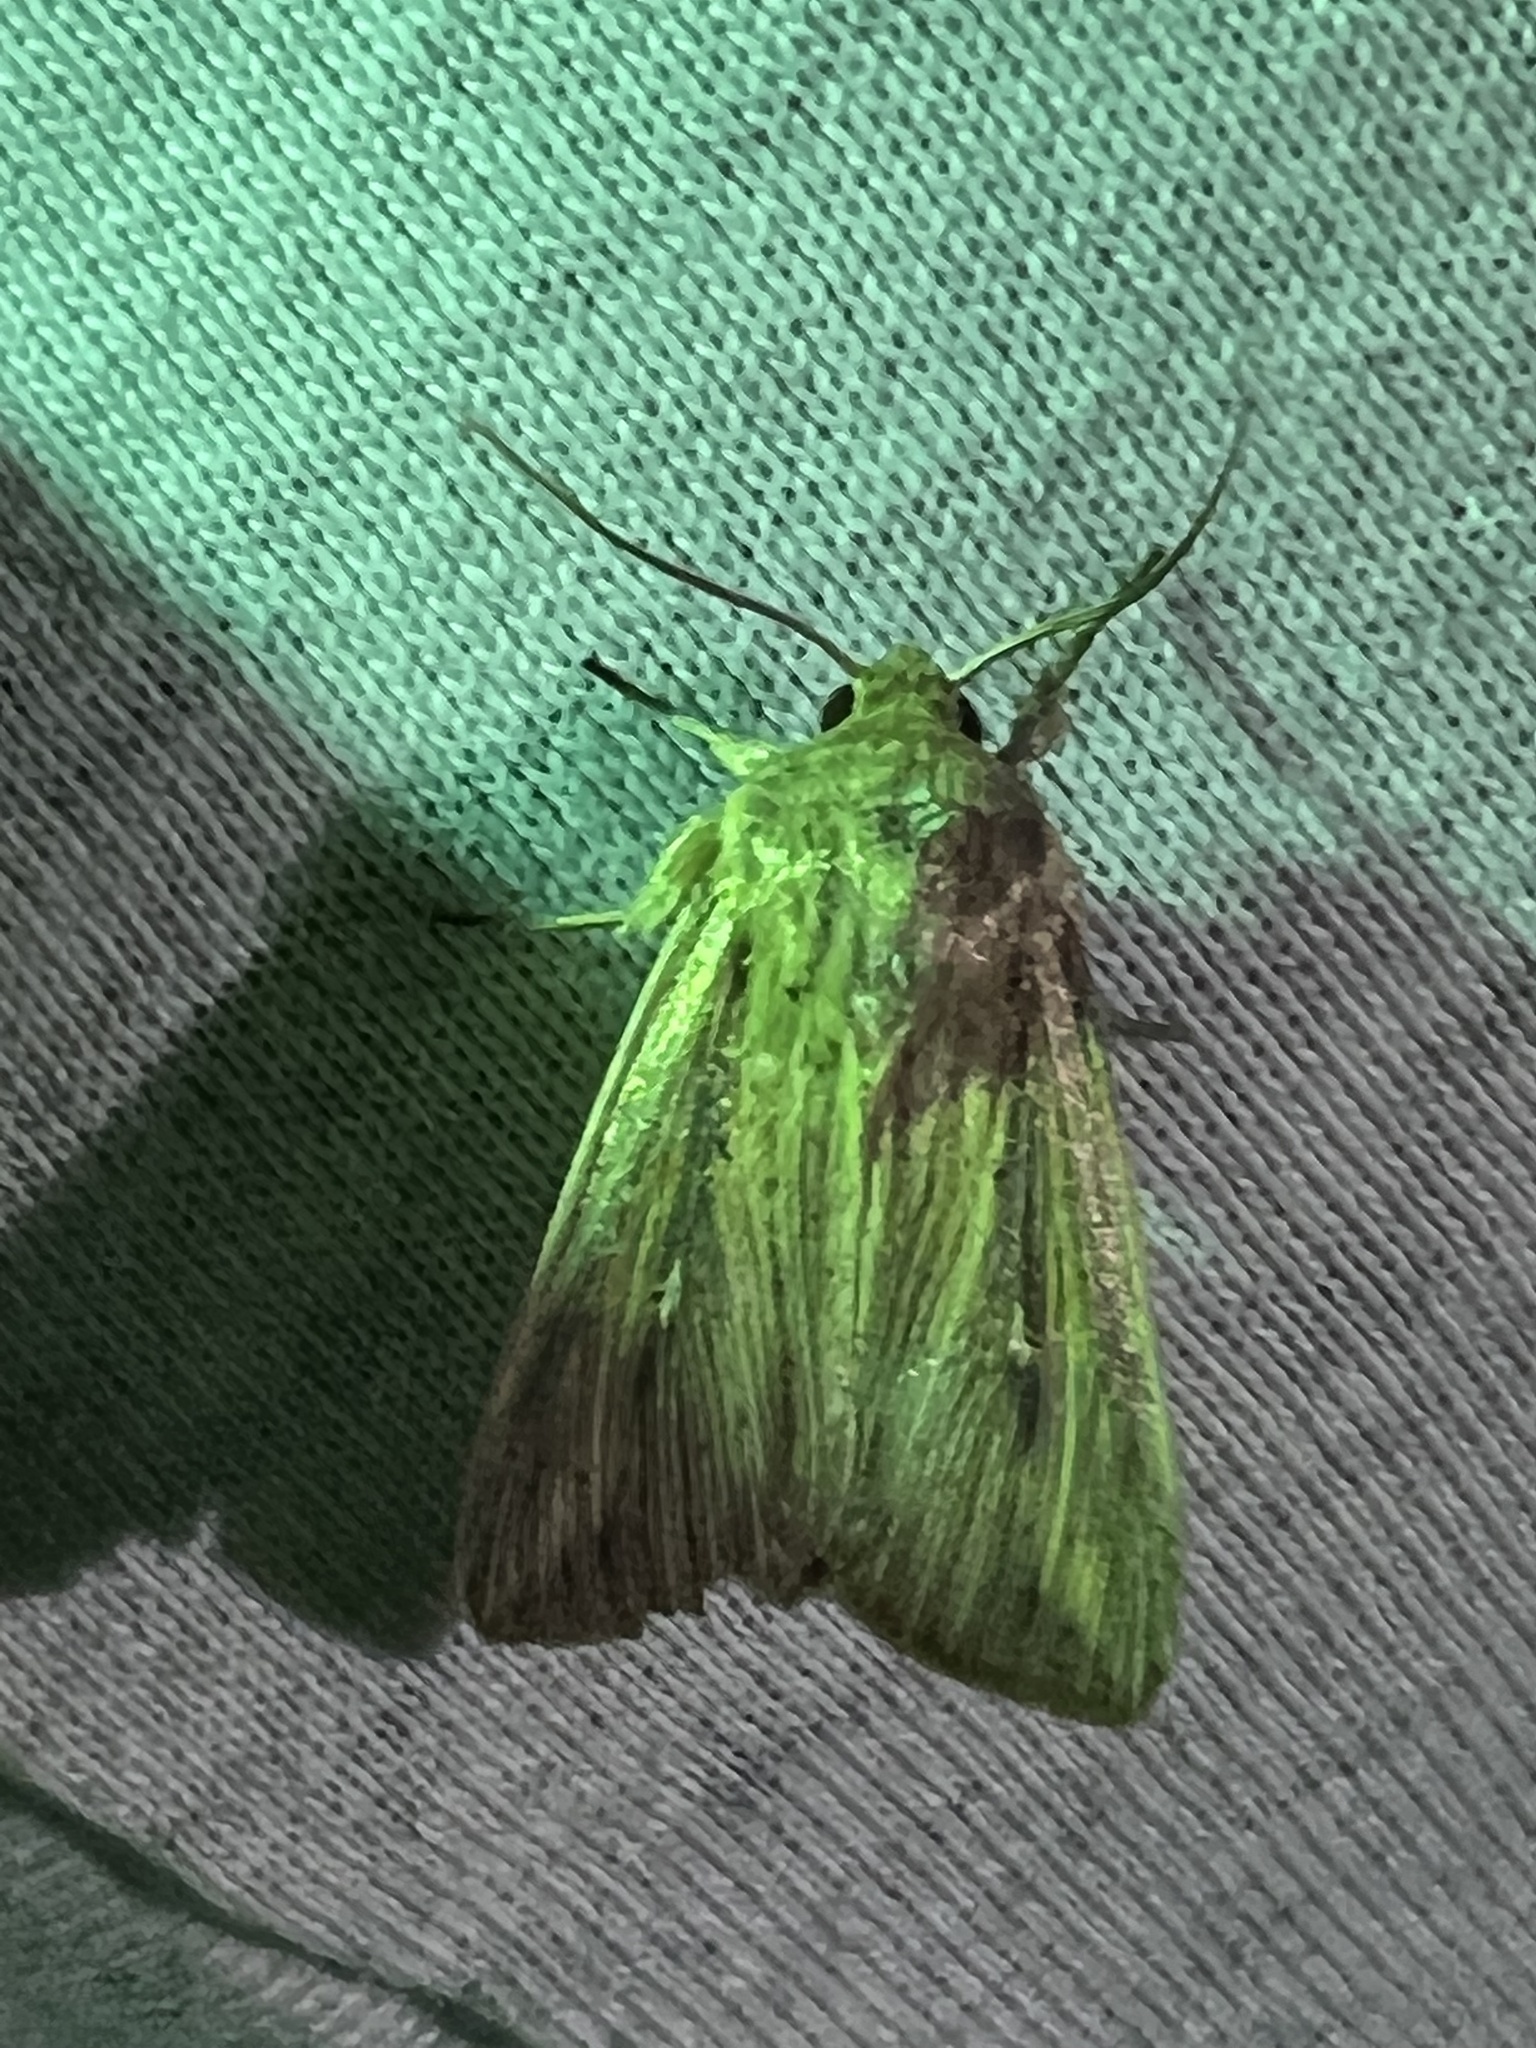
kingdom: Animalia
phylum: Arthropoda
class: Insecta
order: Lepidoptera
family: Noctuidae
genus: Leucania
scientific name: Leucania linda
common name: Linda's wainscot
